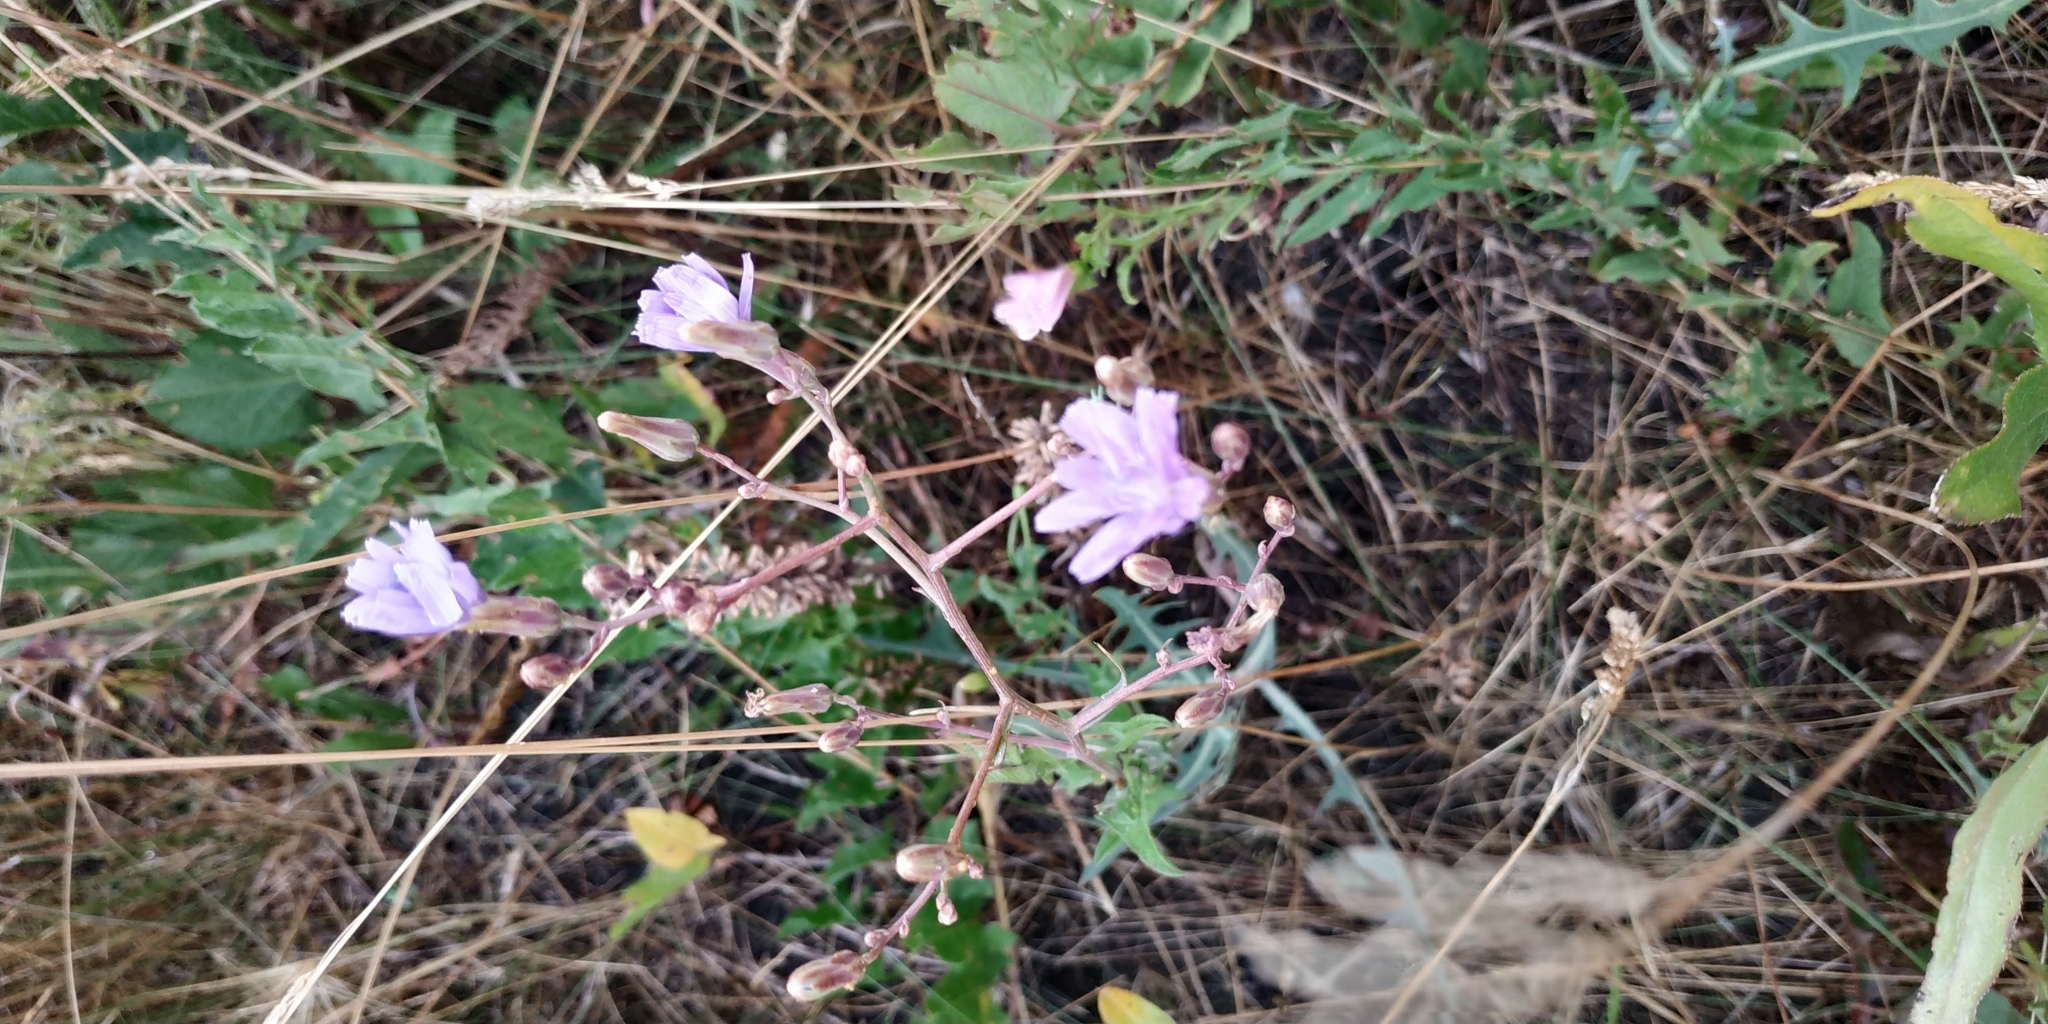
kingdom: Plantae
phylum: Tracheophyta
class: Magnoliopsida
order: Asterales
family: Asteraceae
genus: Lactuca
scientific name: Lactuca tatarica
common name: Blue lettuce
